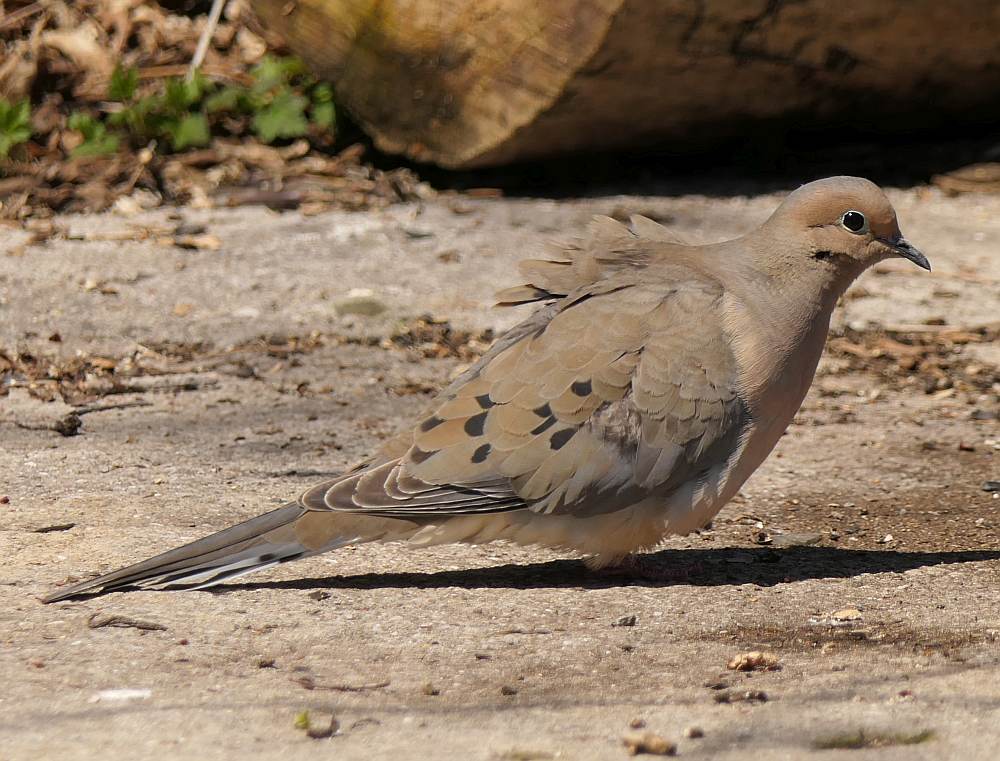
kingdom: Animalia
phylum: Chordata
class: Aves
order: Columbiformes
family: Columbidae
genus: Zenaida
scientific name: Zenaida macroura
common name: Mourning dove
